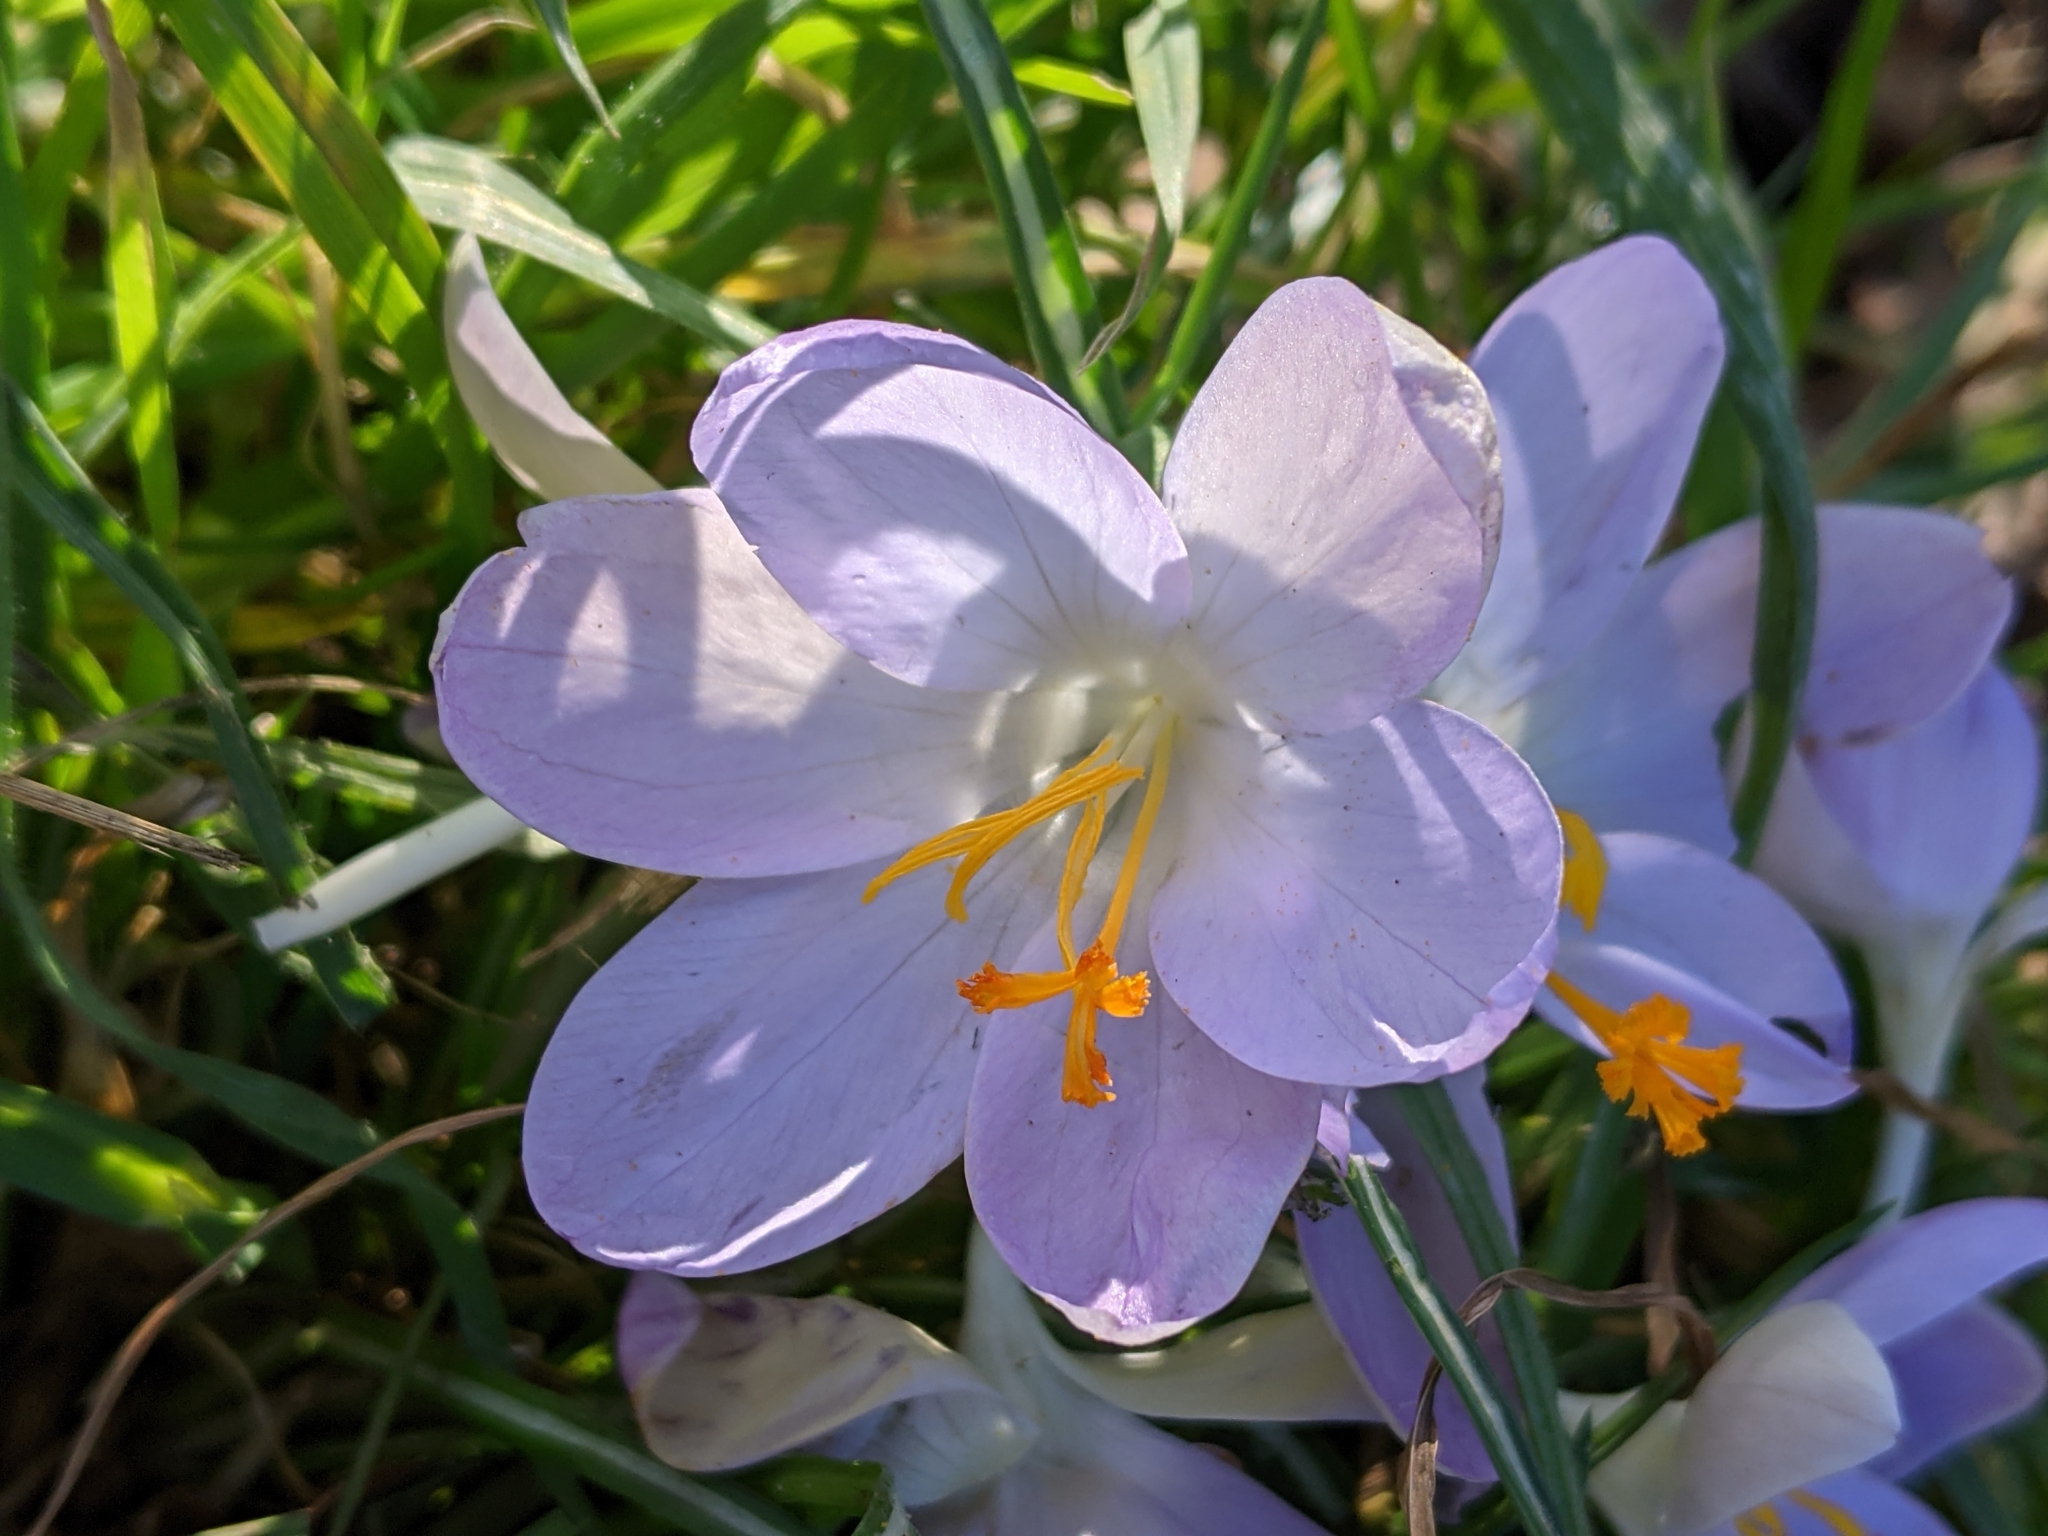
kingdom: Plantae
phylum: Tracheophyta
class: Liliopsida
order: Asparagales
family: Iridaceae
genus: Crocus
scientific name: Crocus tommasinianus
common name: Early crocus
